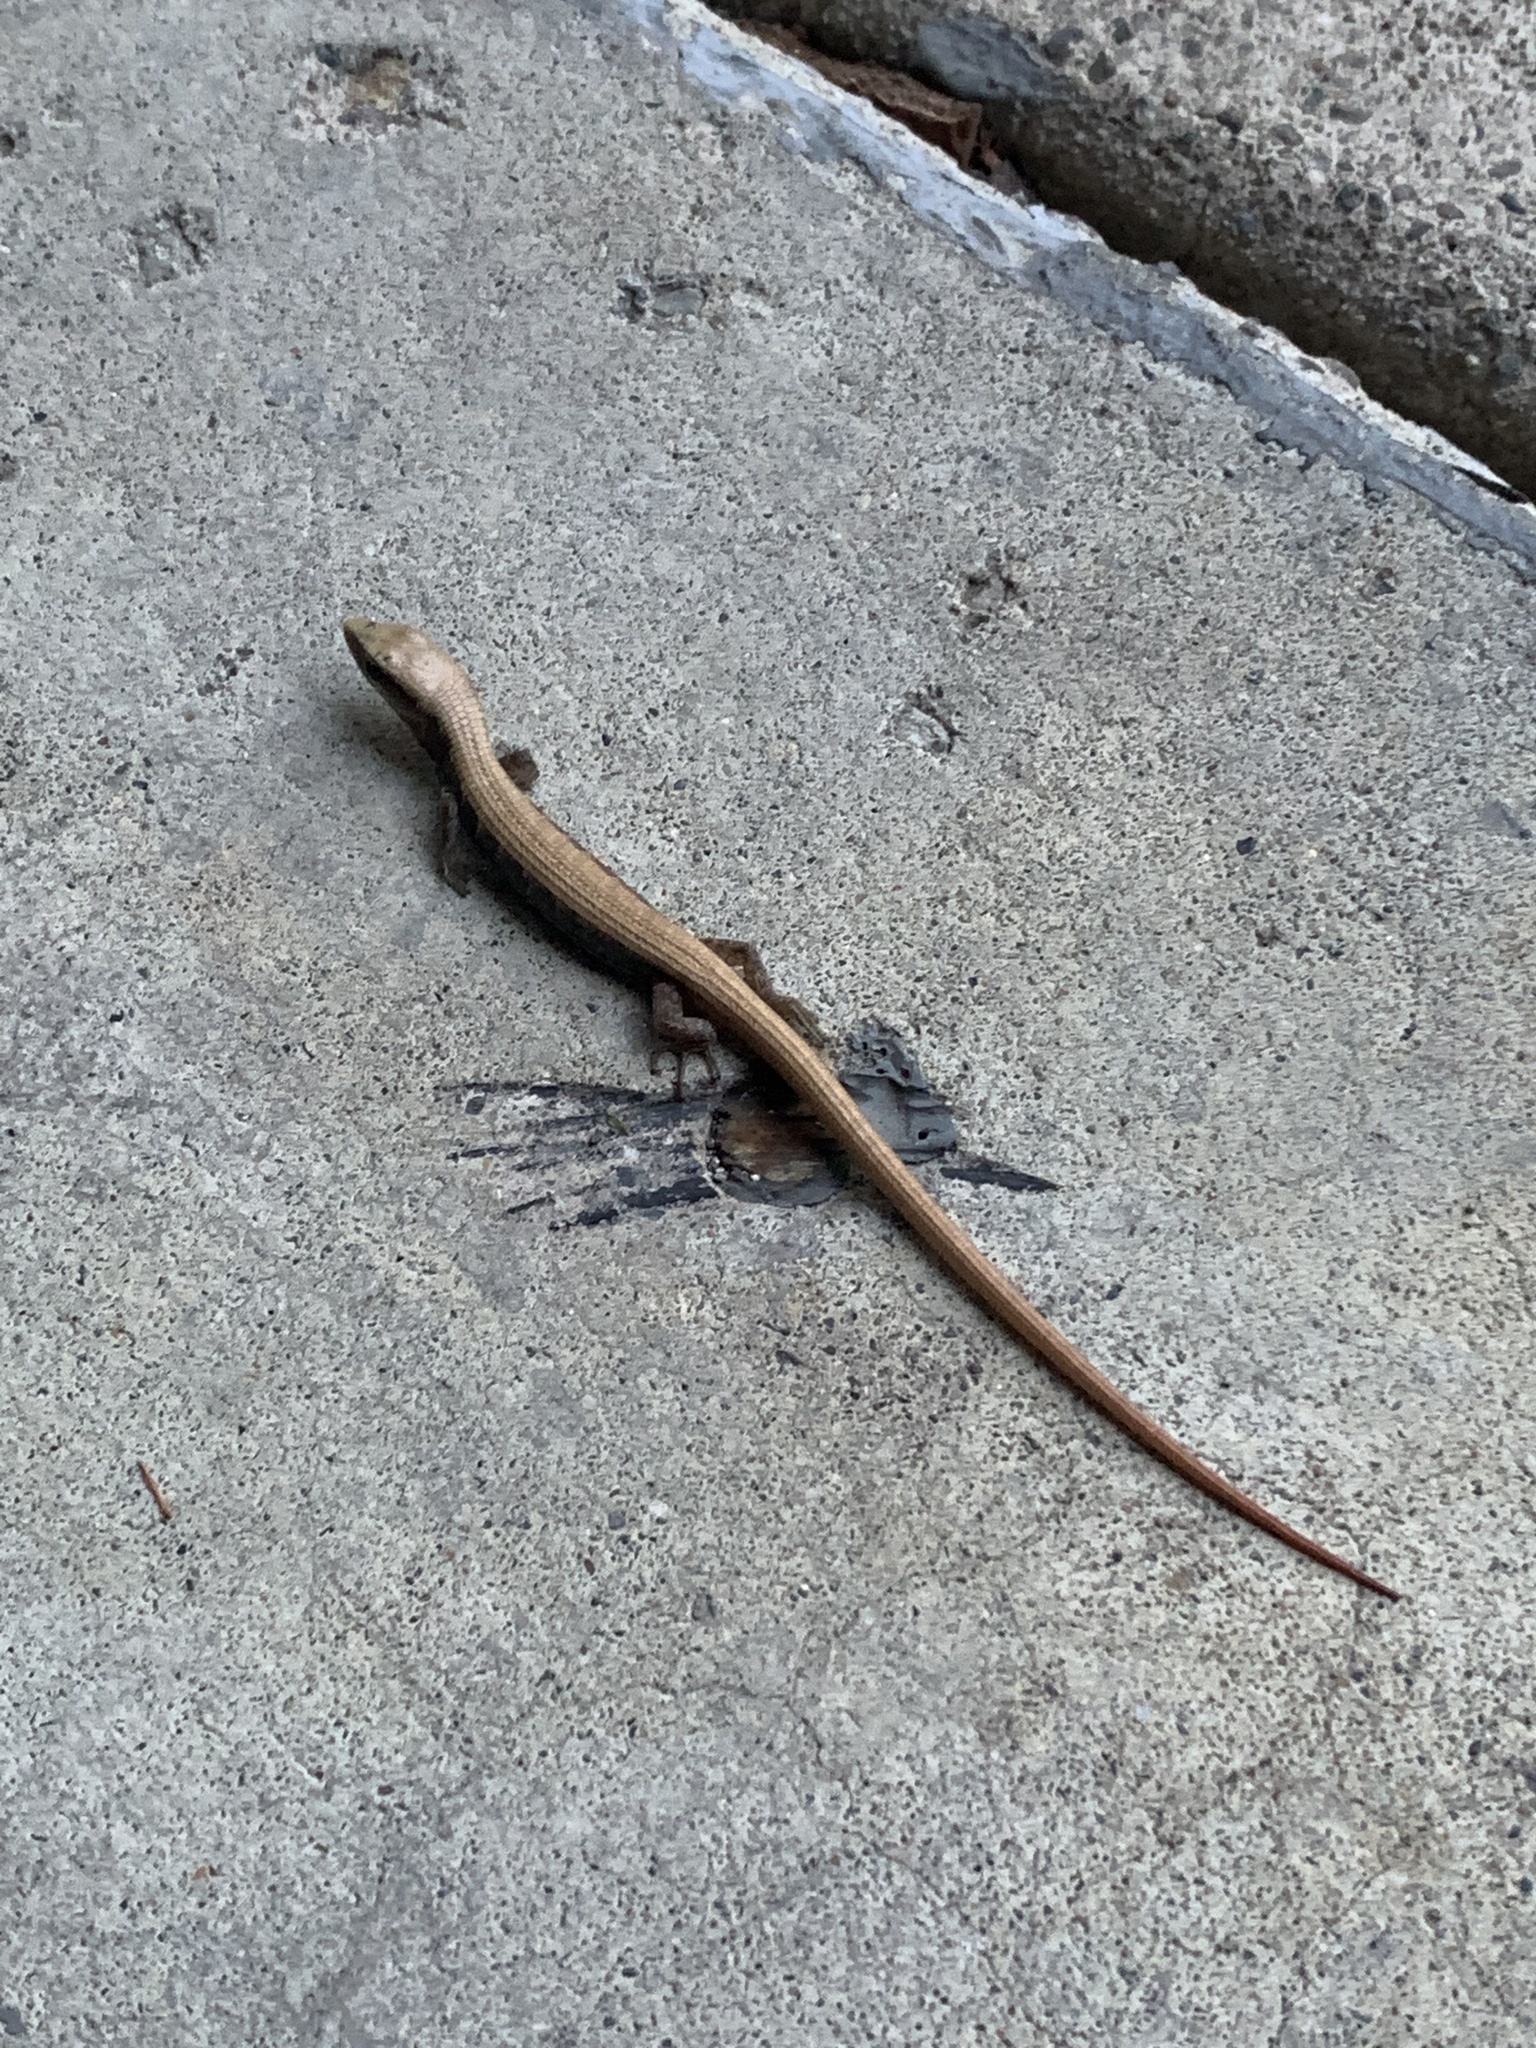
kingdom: Animalia
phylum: Chordata
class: Squamata
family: Anguidae
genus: Elgaria
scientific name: Elgaria multicarinata
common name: Southern alligator lizard
